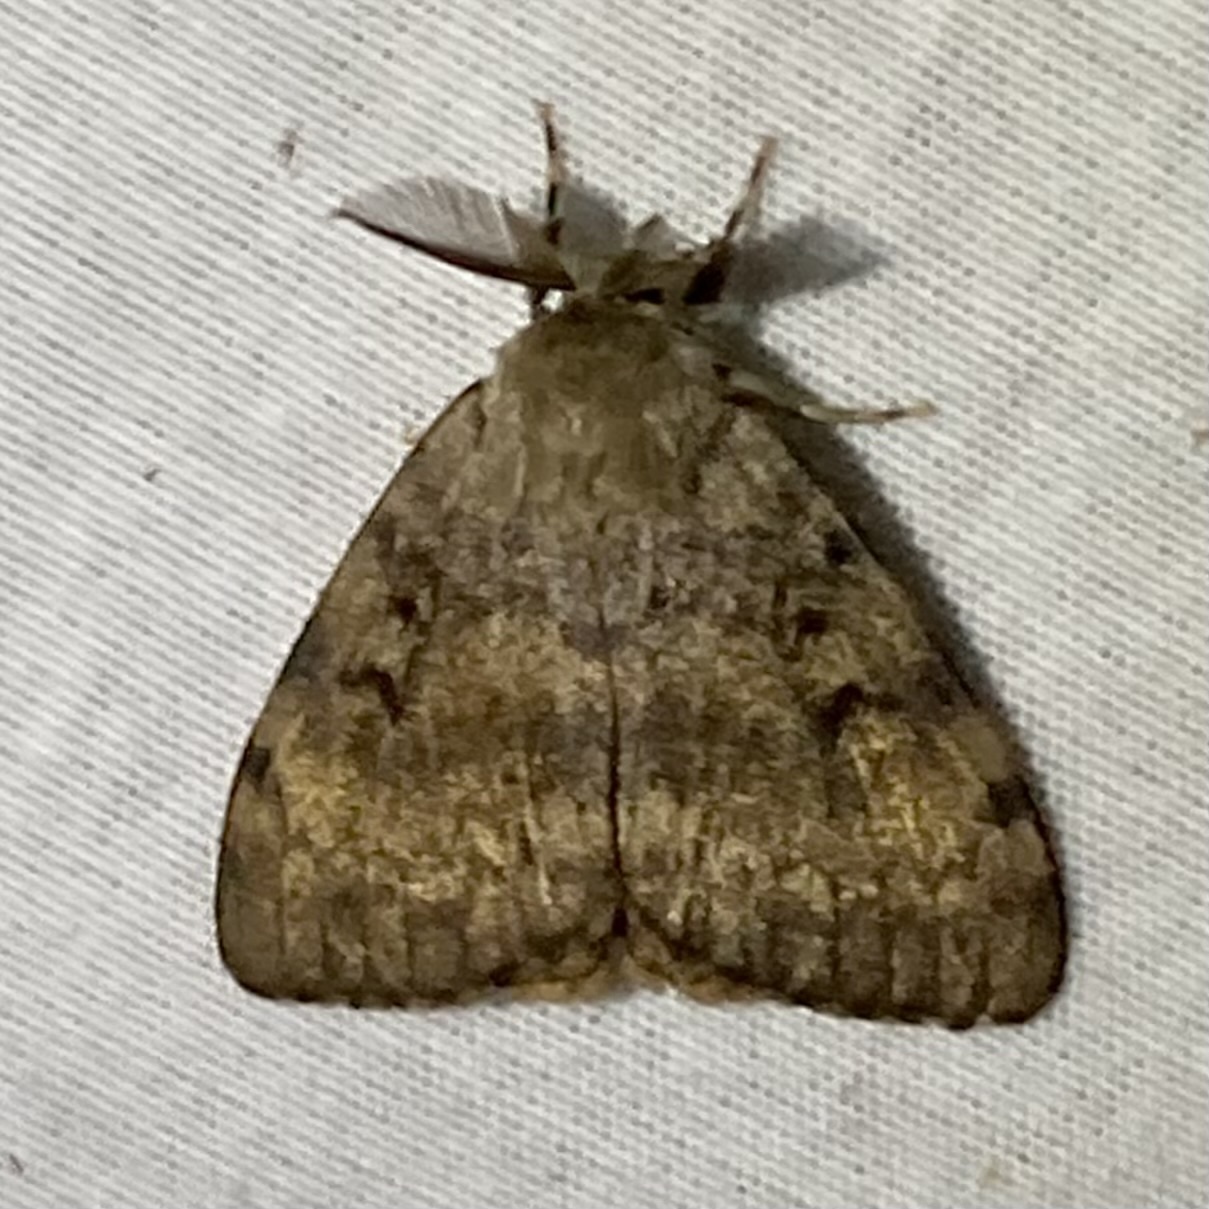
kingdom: Animalia
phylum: Arthropoda
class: Insecta
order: Lepidoptera
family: Erebidae
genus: Lymantria
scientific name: Lymantria dispar
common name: Gypsy moth
